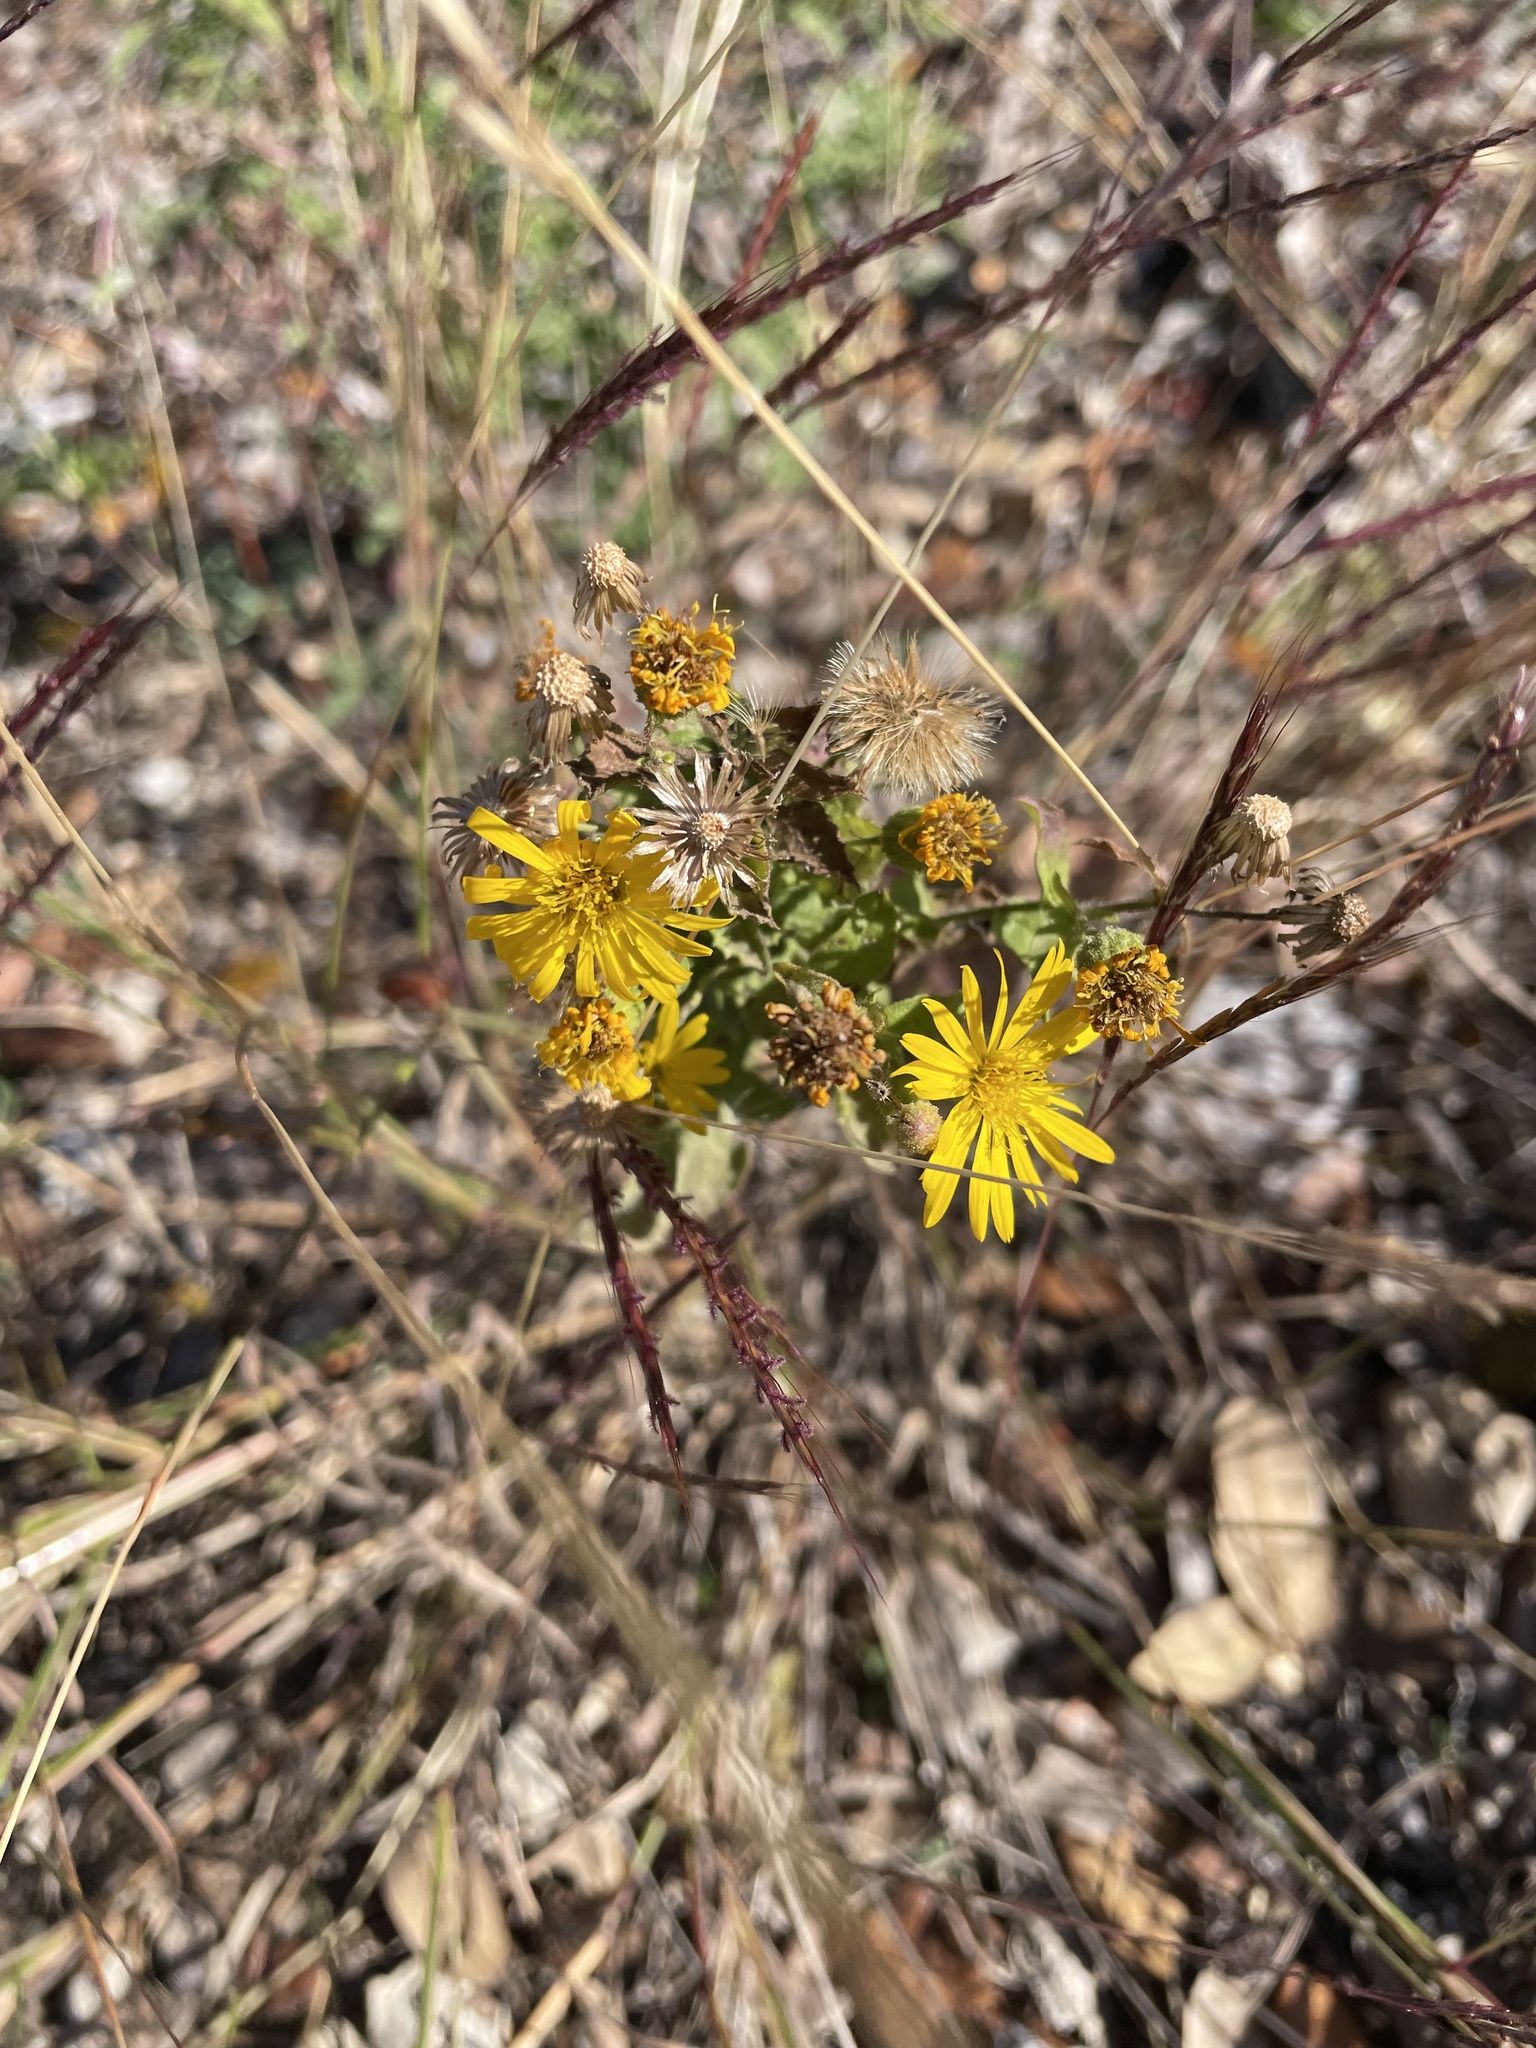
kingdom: Plantae
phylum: Tracheophyta
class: Magnoliopsida
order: Asterales
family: Asteraceae
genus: Heterotheca
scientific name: Heterotheca subaxillaris
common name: Camphorweed
